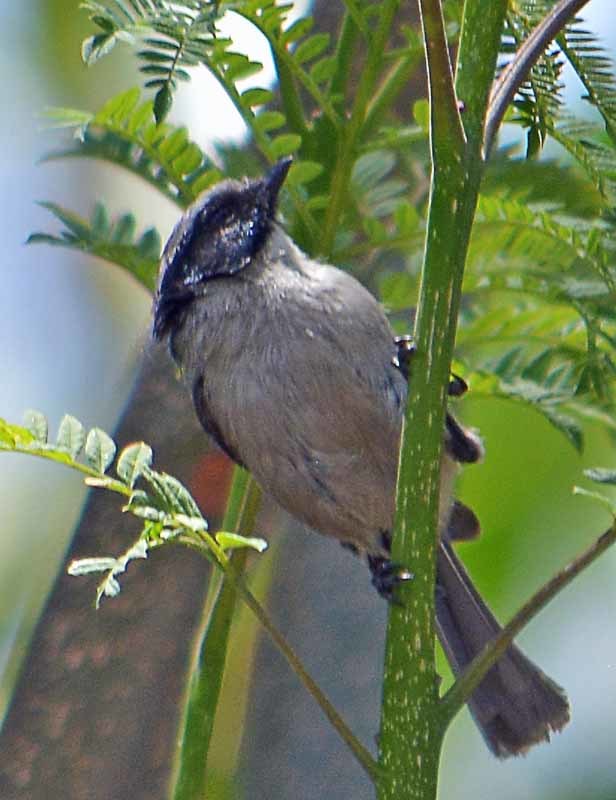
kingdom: Animalia
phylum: Chordata
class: Aves
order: Passeriformes
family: Aegithalidae
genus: Psaltriparus
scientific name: Psaltriparus minimus
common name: American bushtit
